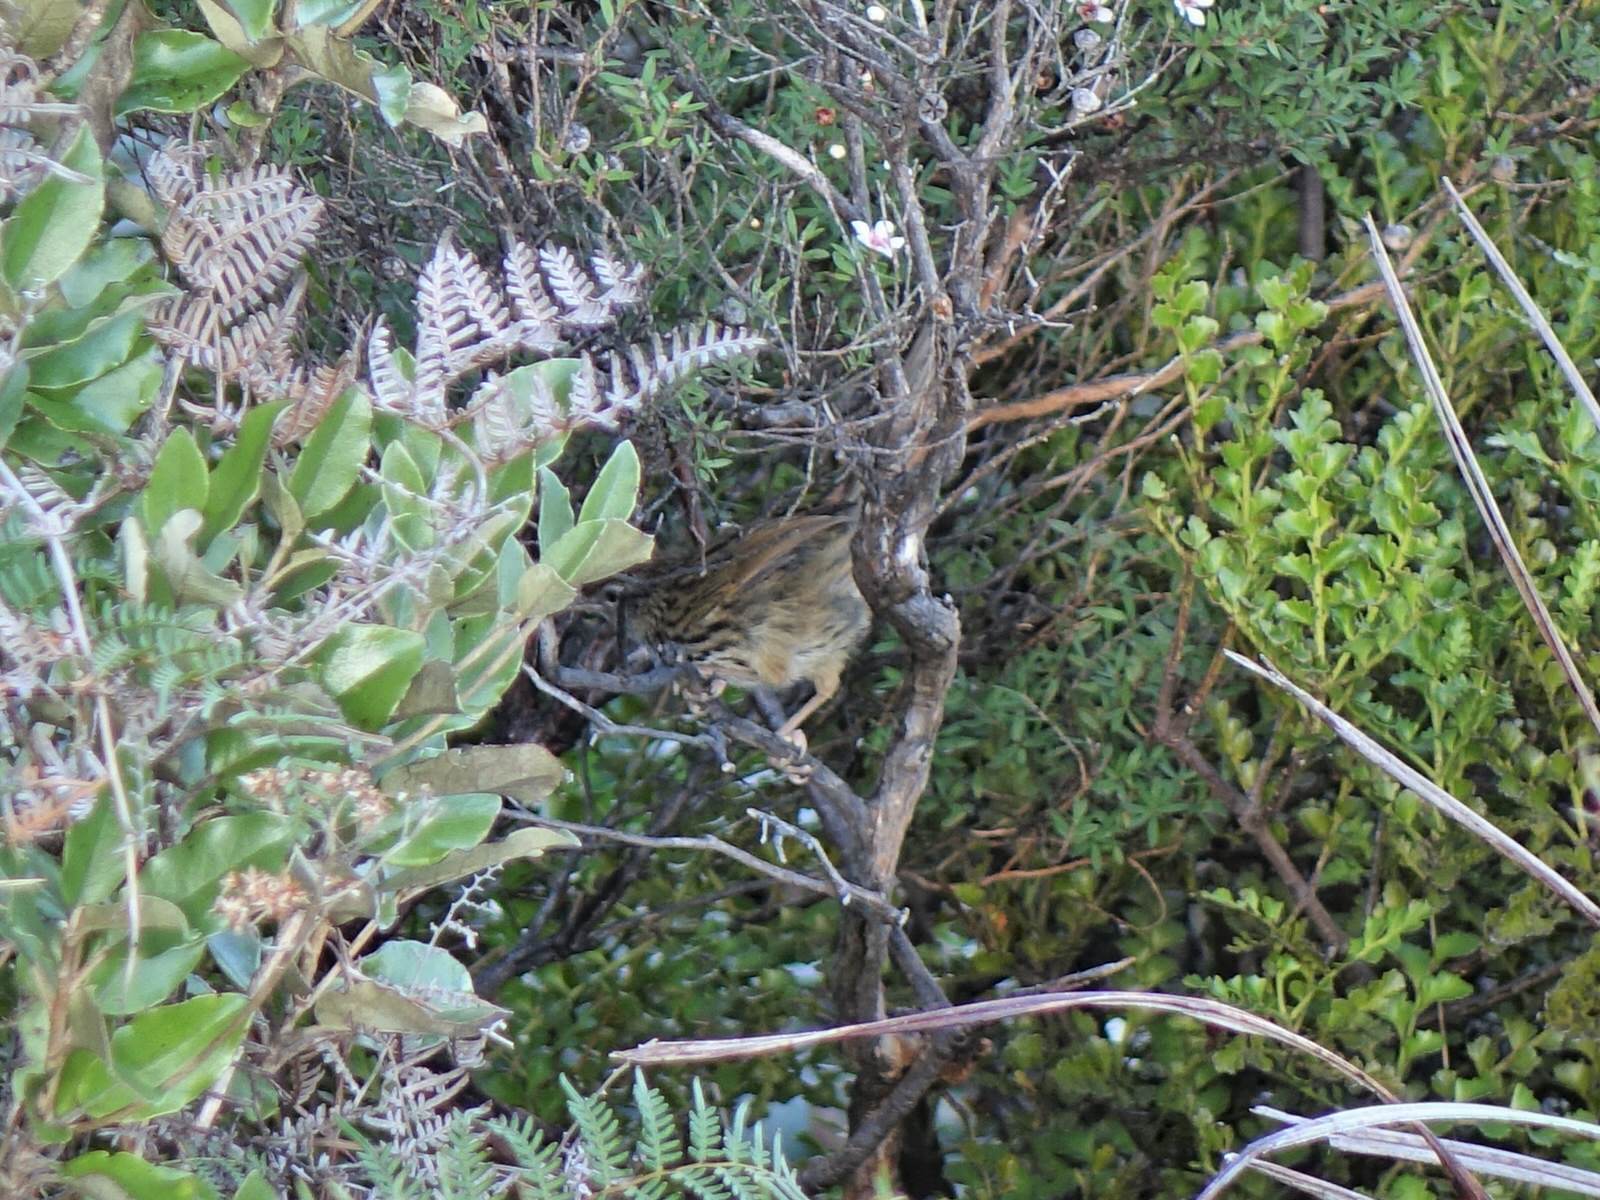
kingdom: Animalia
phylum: Chordata
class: Aves
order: Passeriformes
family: Locustellidae
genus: Megalurus
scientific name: Megalurus punctatus
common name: New zealand fernbird
